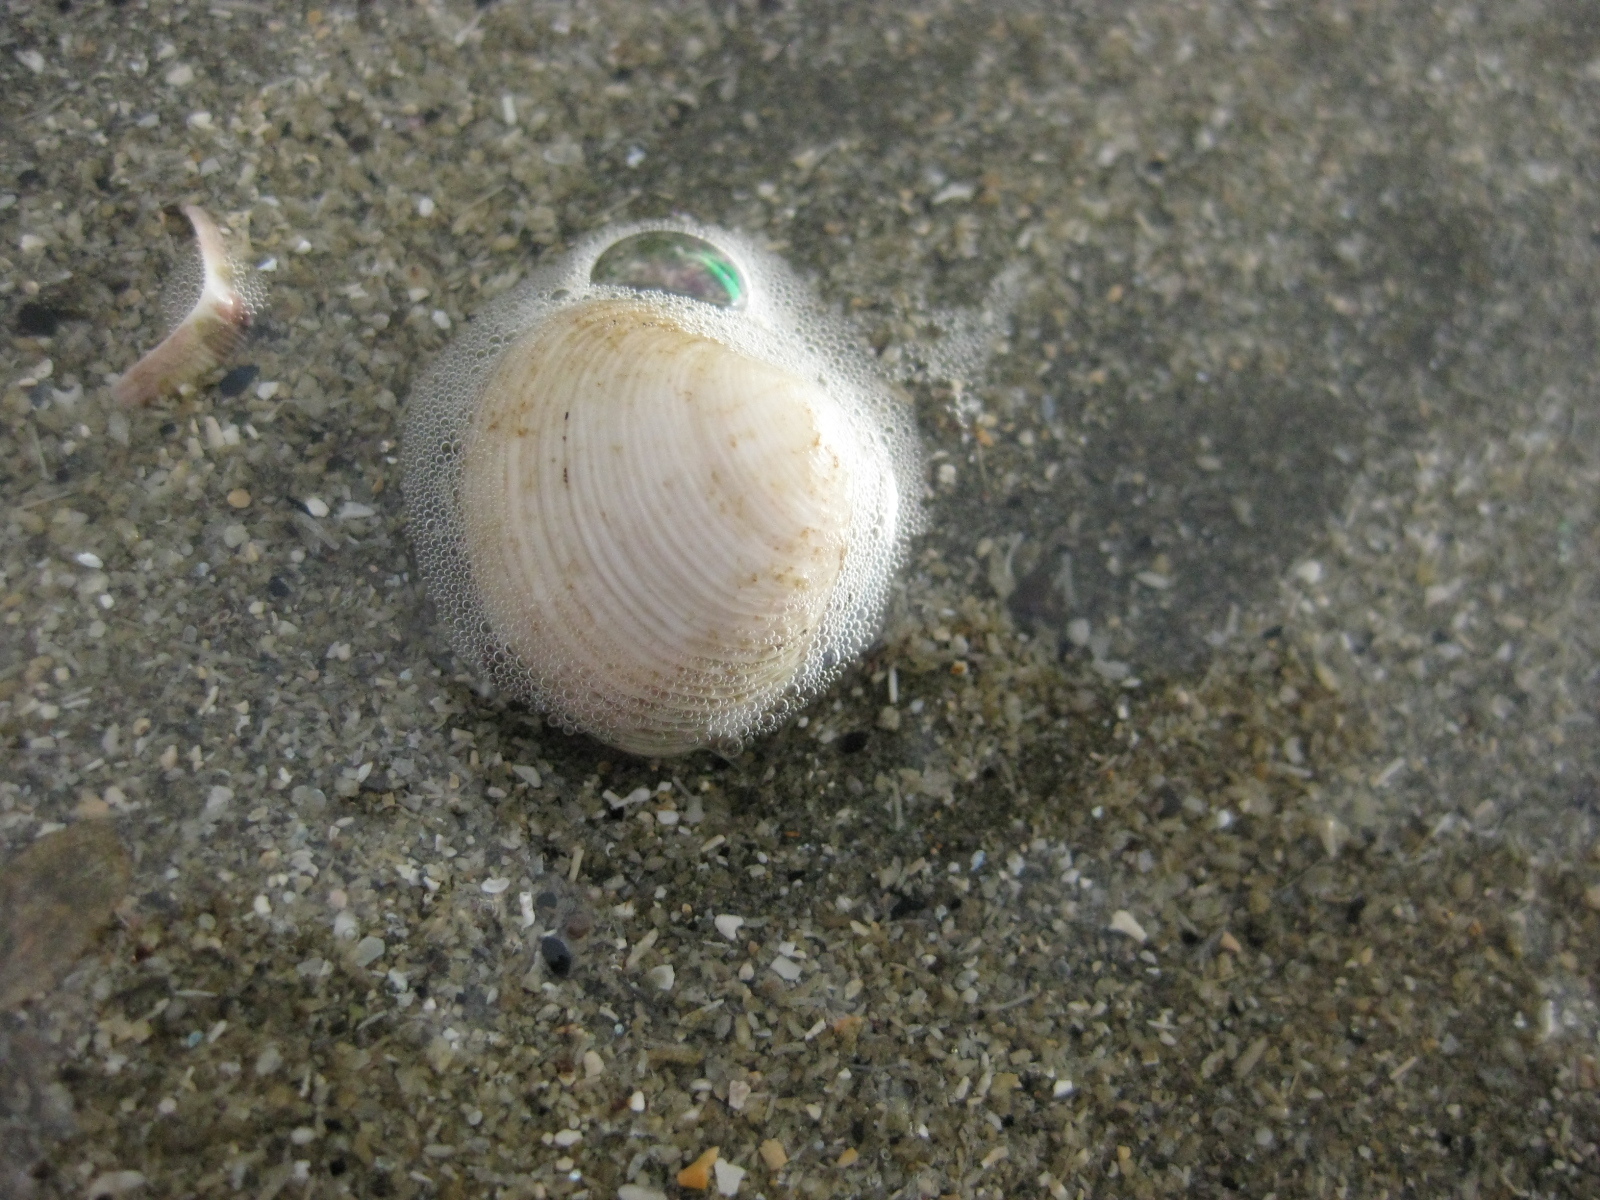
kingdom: Animalia
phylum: Mollusca
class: Bivalvia
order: Venerida
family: Veneridae
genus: Tawera
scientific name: Tawera spissa
